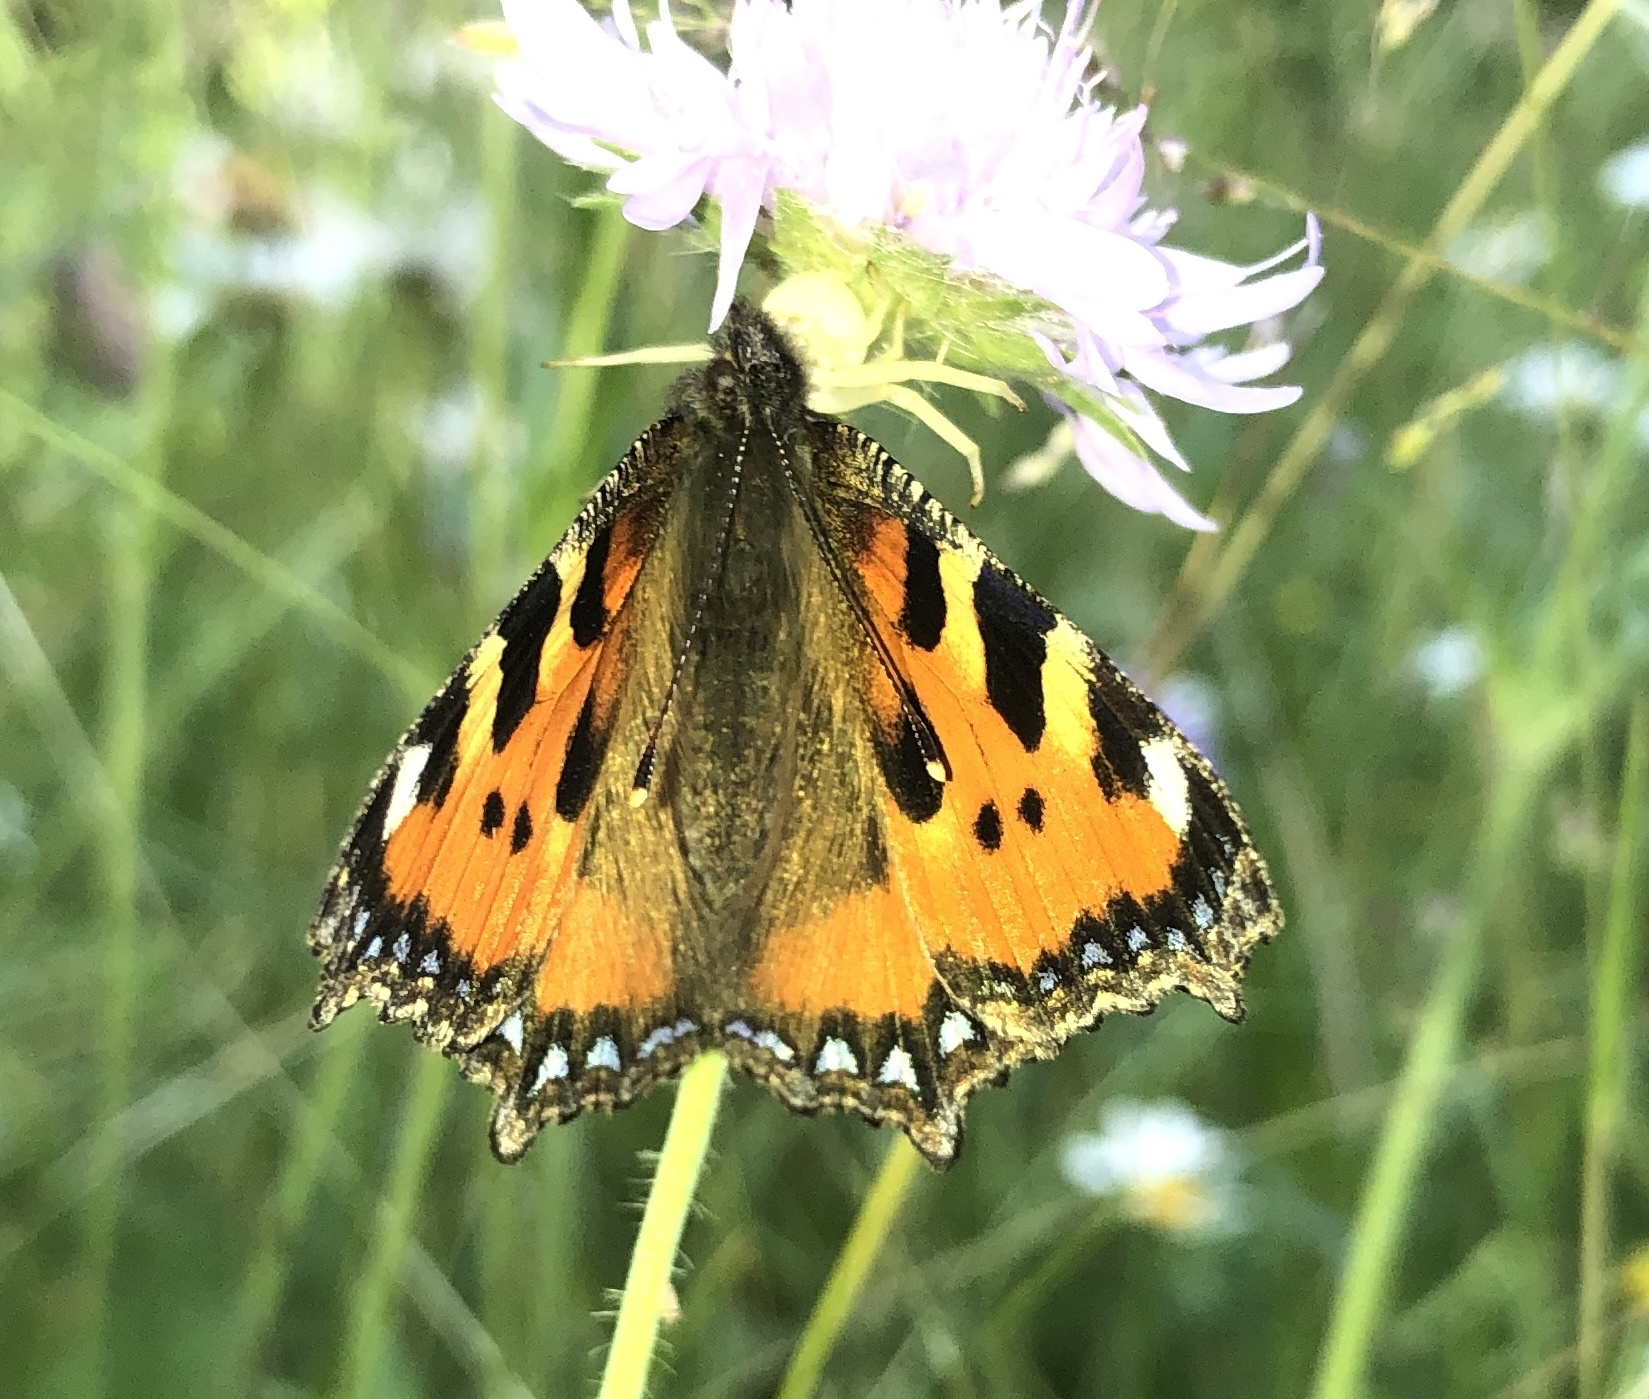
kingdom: Animalia
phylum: Arthropoda
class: Insecta
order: Lepidoptera
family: Nymphalidae
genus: Aglais
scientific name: Aglais urticae
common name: Small tortoiseshell
